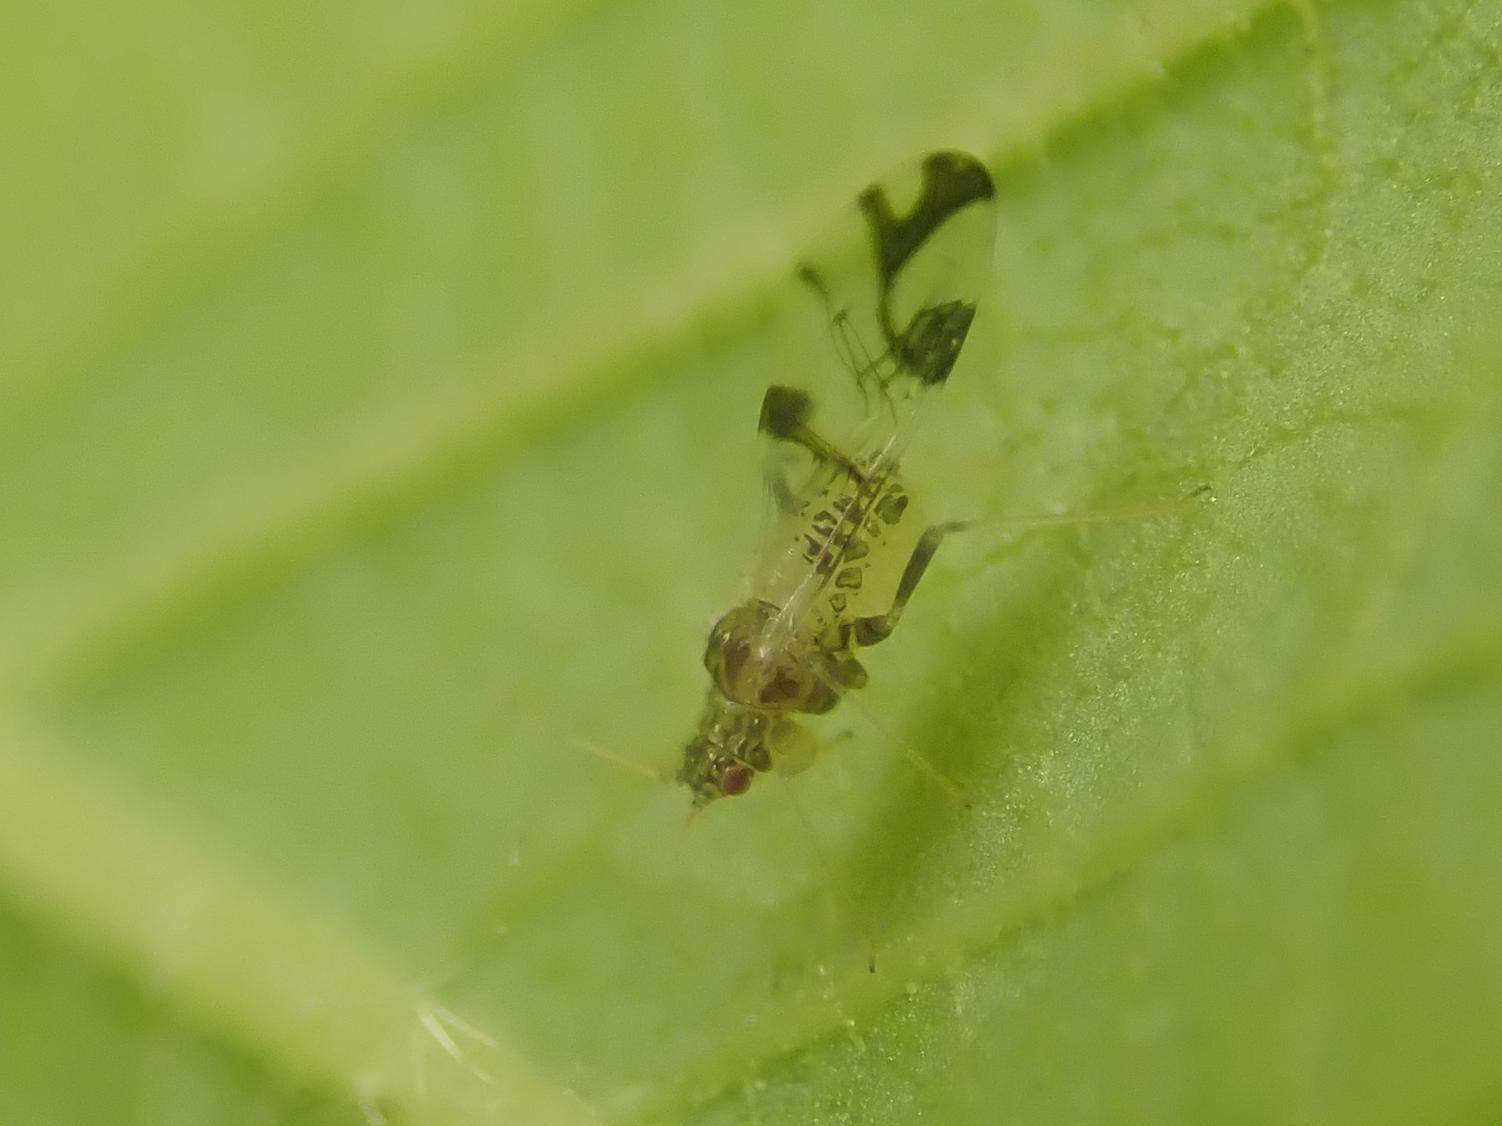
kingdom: Animalia
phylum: Arthropoda
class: Insecta
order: Hemiptera
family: Aphididae
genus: Tinocallis
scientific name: Tinocallis platani
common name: Elm aphid
